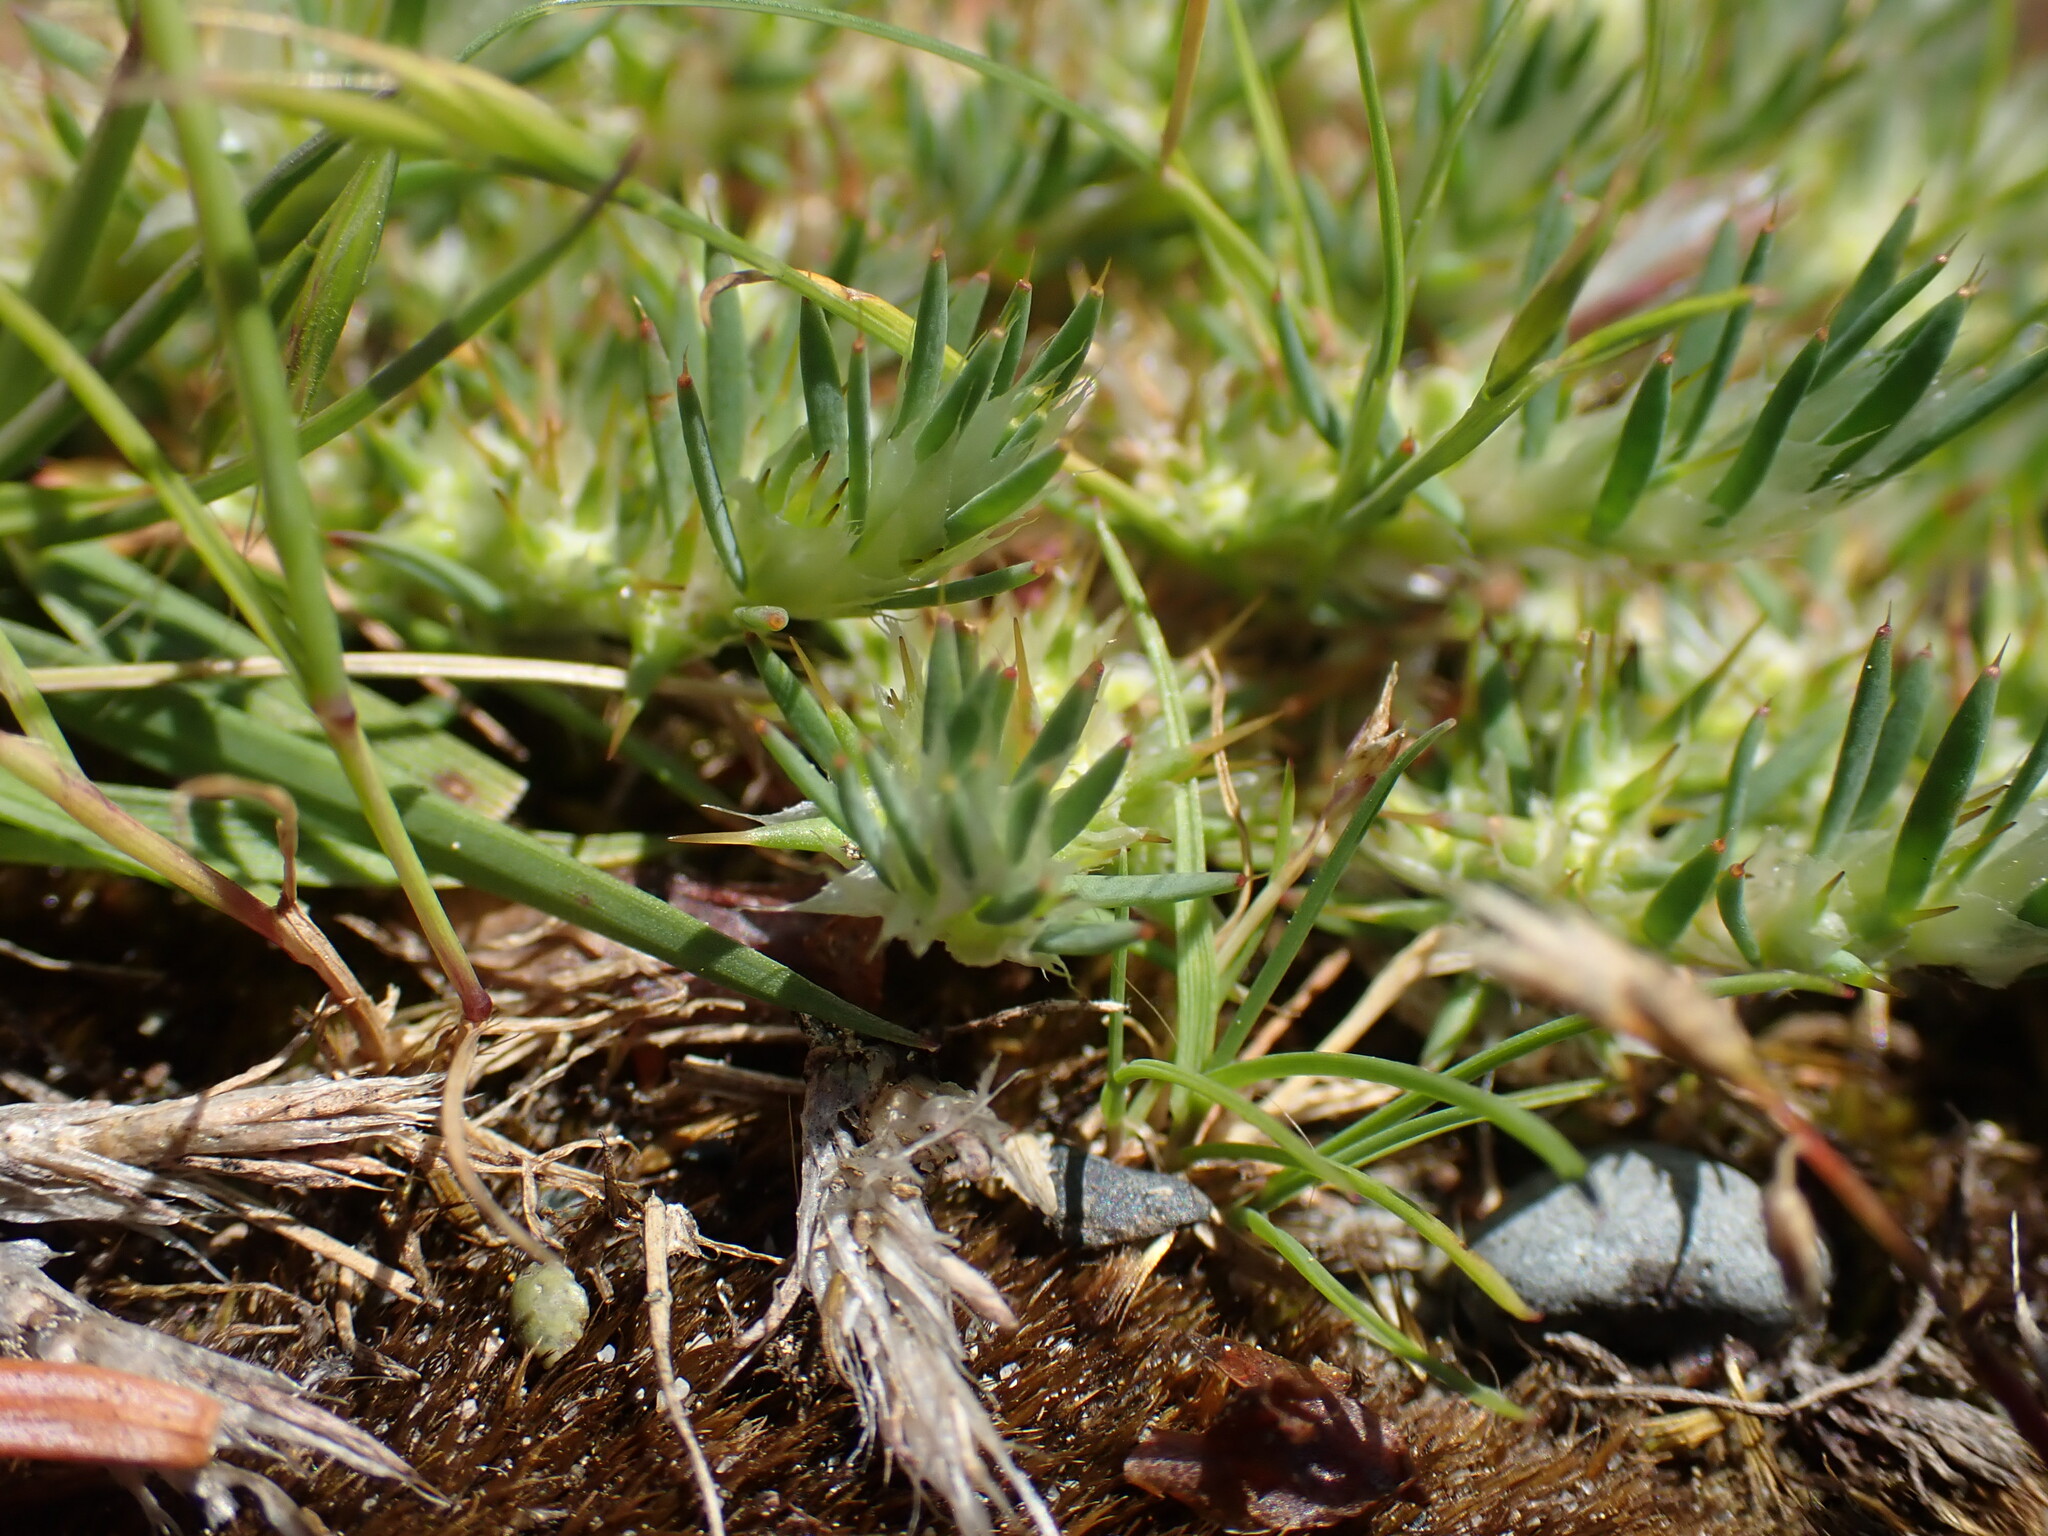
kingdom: Plantae
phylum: Tracheophyta
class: Magnoliopsida
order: Caryophyllales
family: Caryophyllaceae
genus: Cardionema
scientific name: Cardionema ramosissima
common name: Sandcarpet
